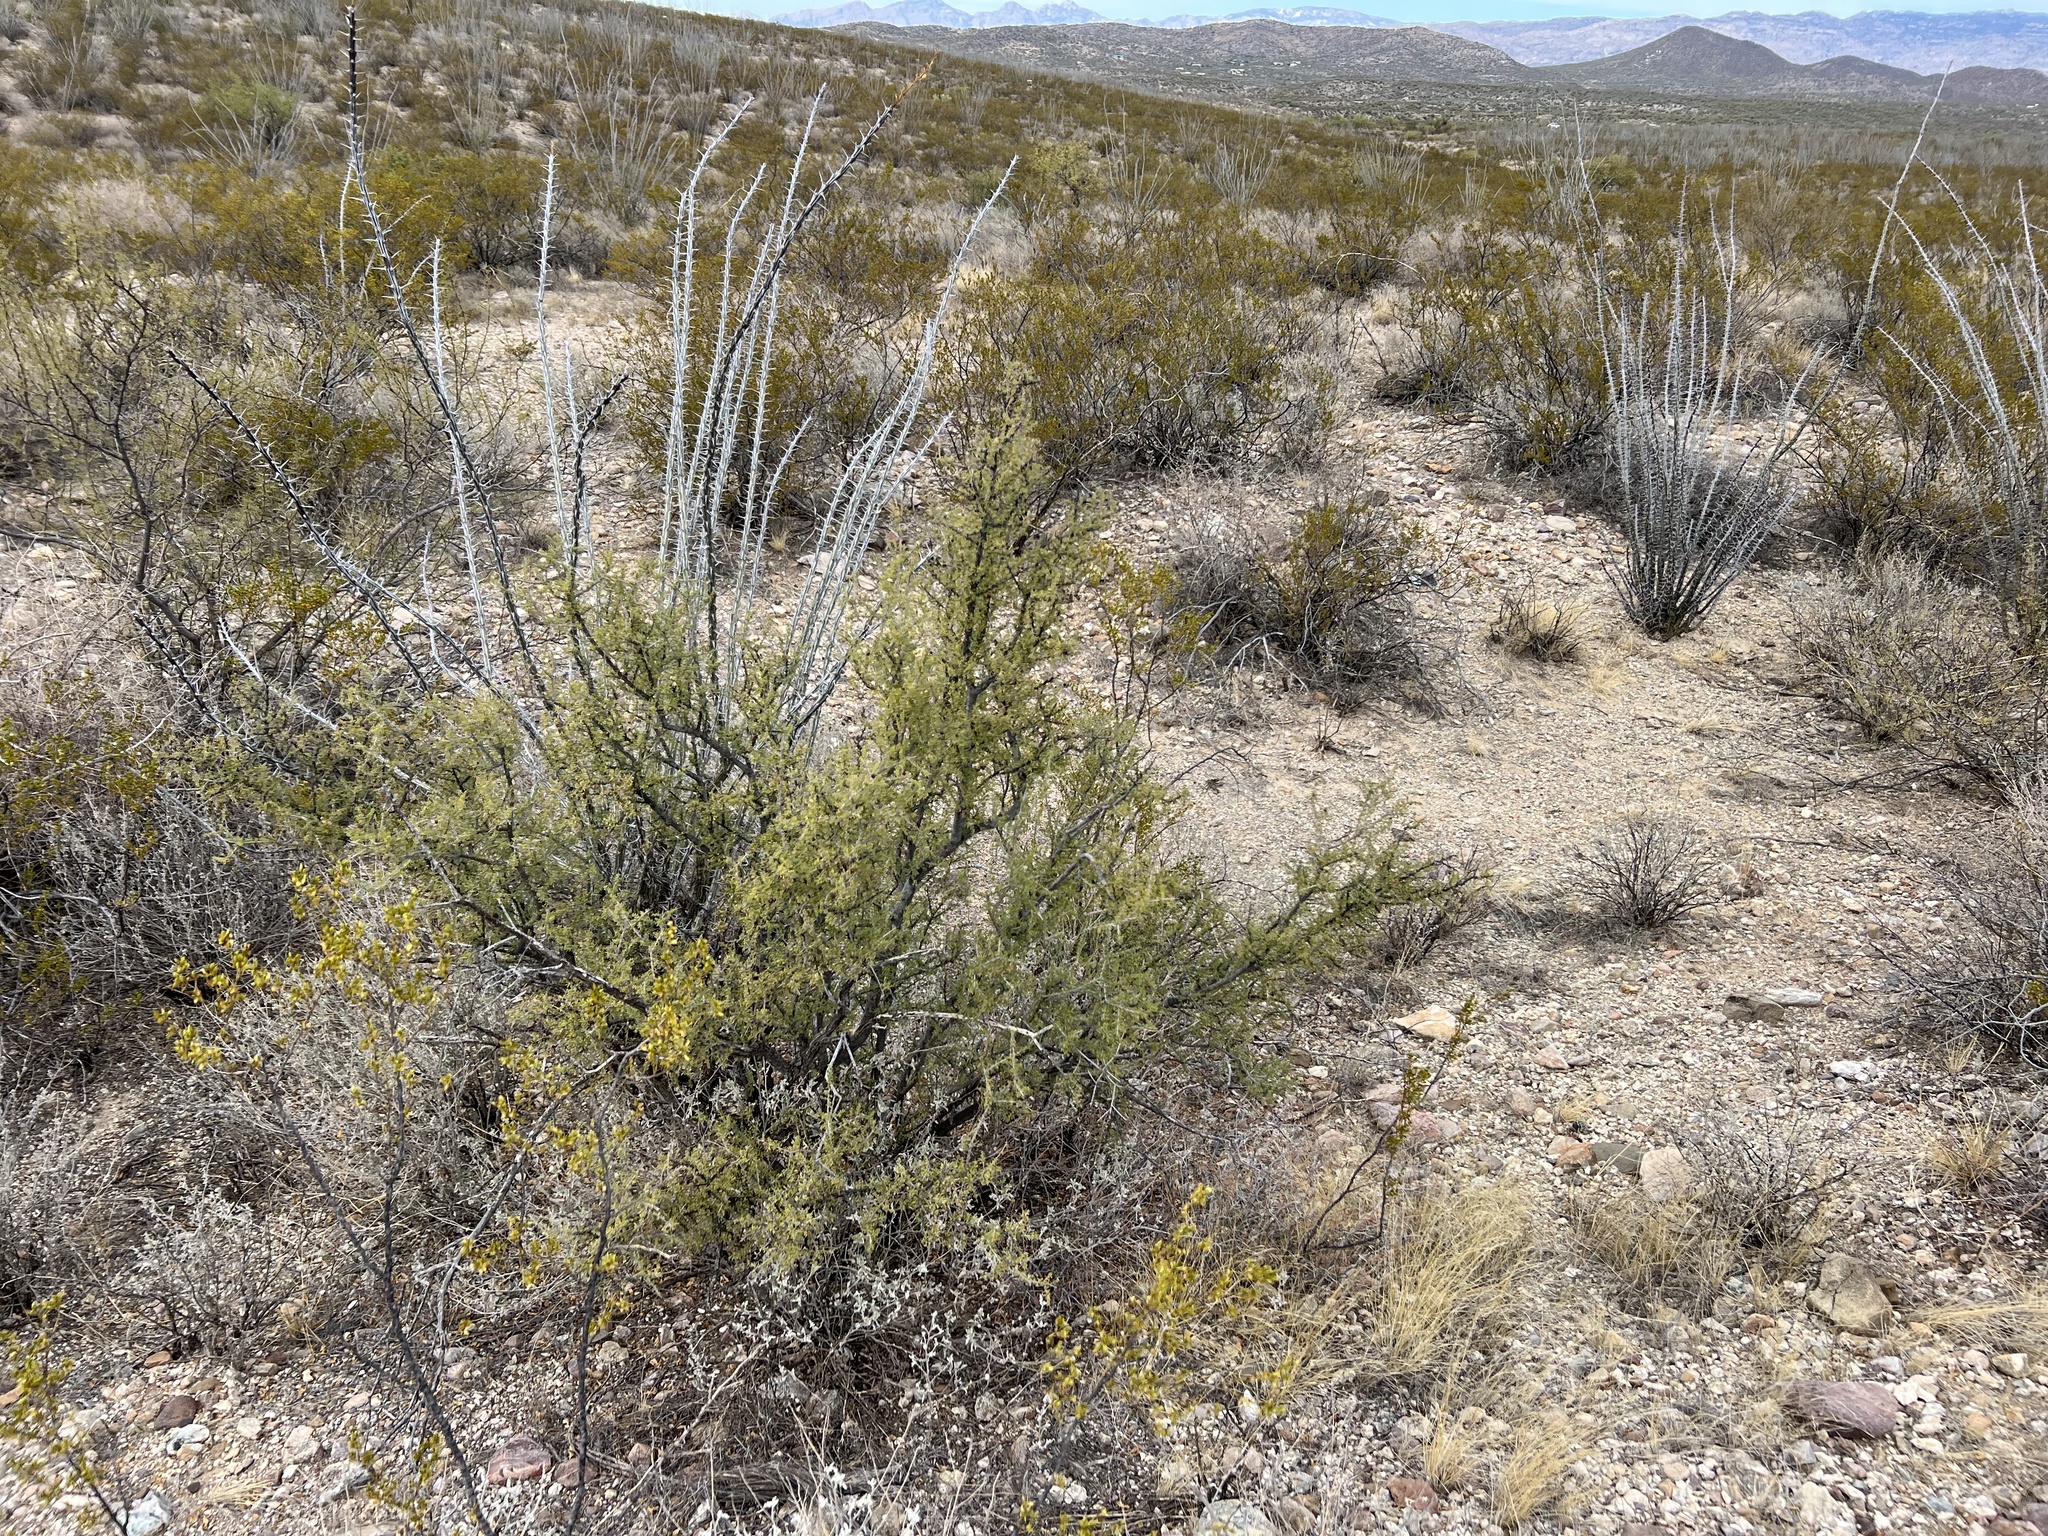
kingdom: Plantae
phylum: Tracheophyta
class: Magnoliopsida
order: Rosales
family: Rhamnaceae
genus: Condalia
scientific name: Condalia warnockii
